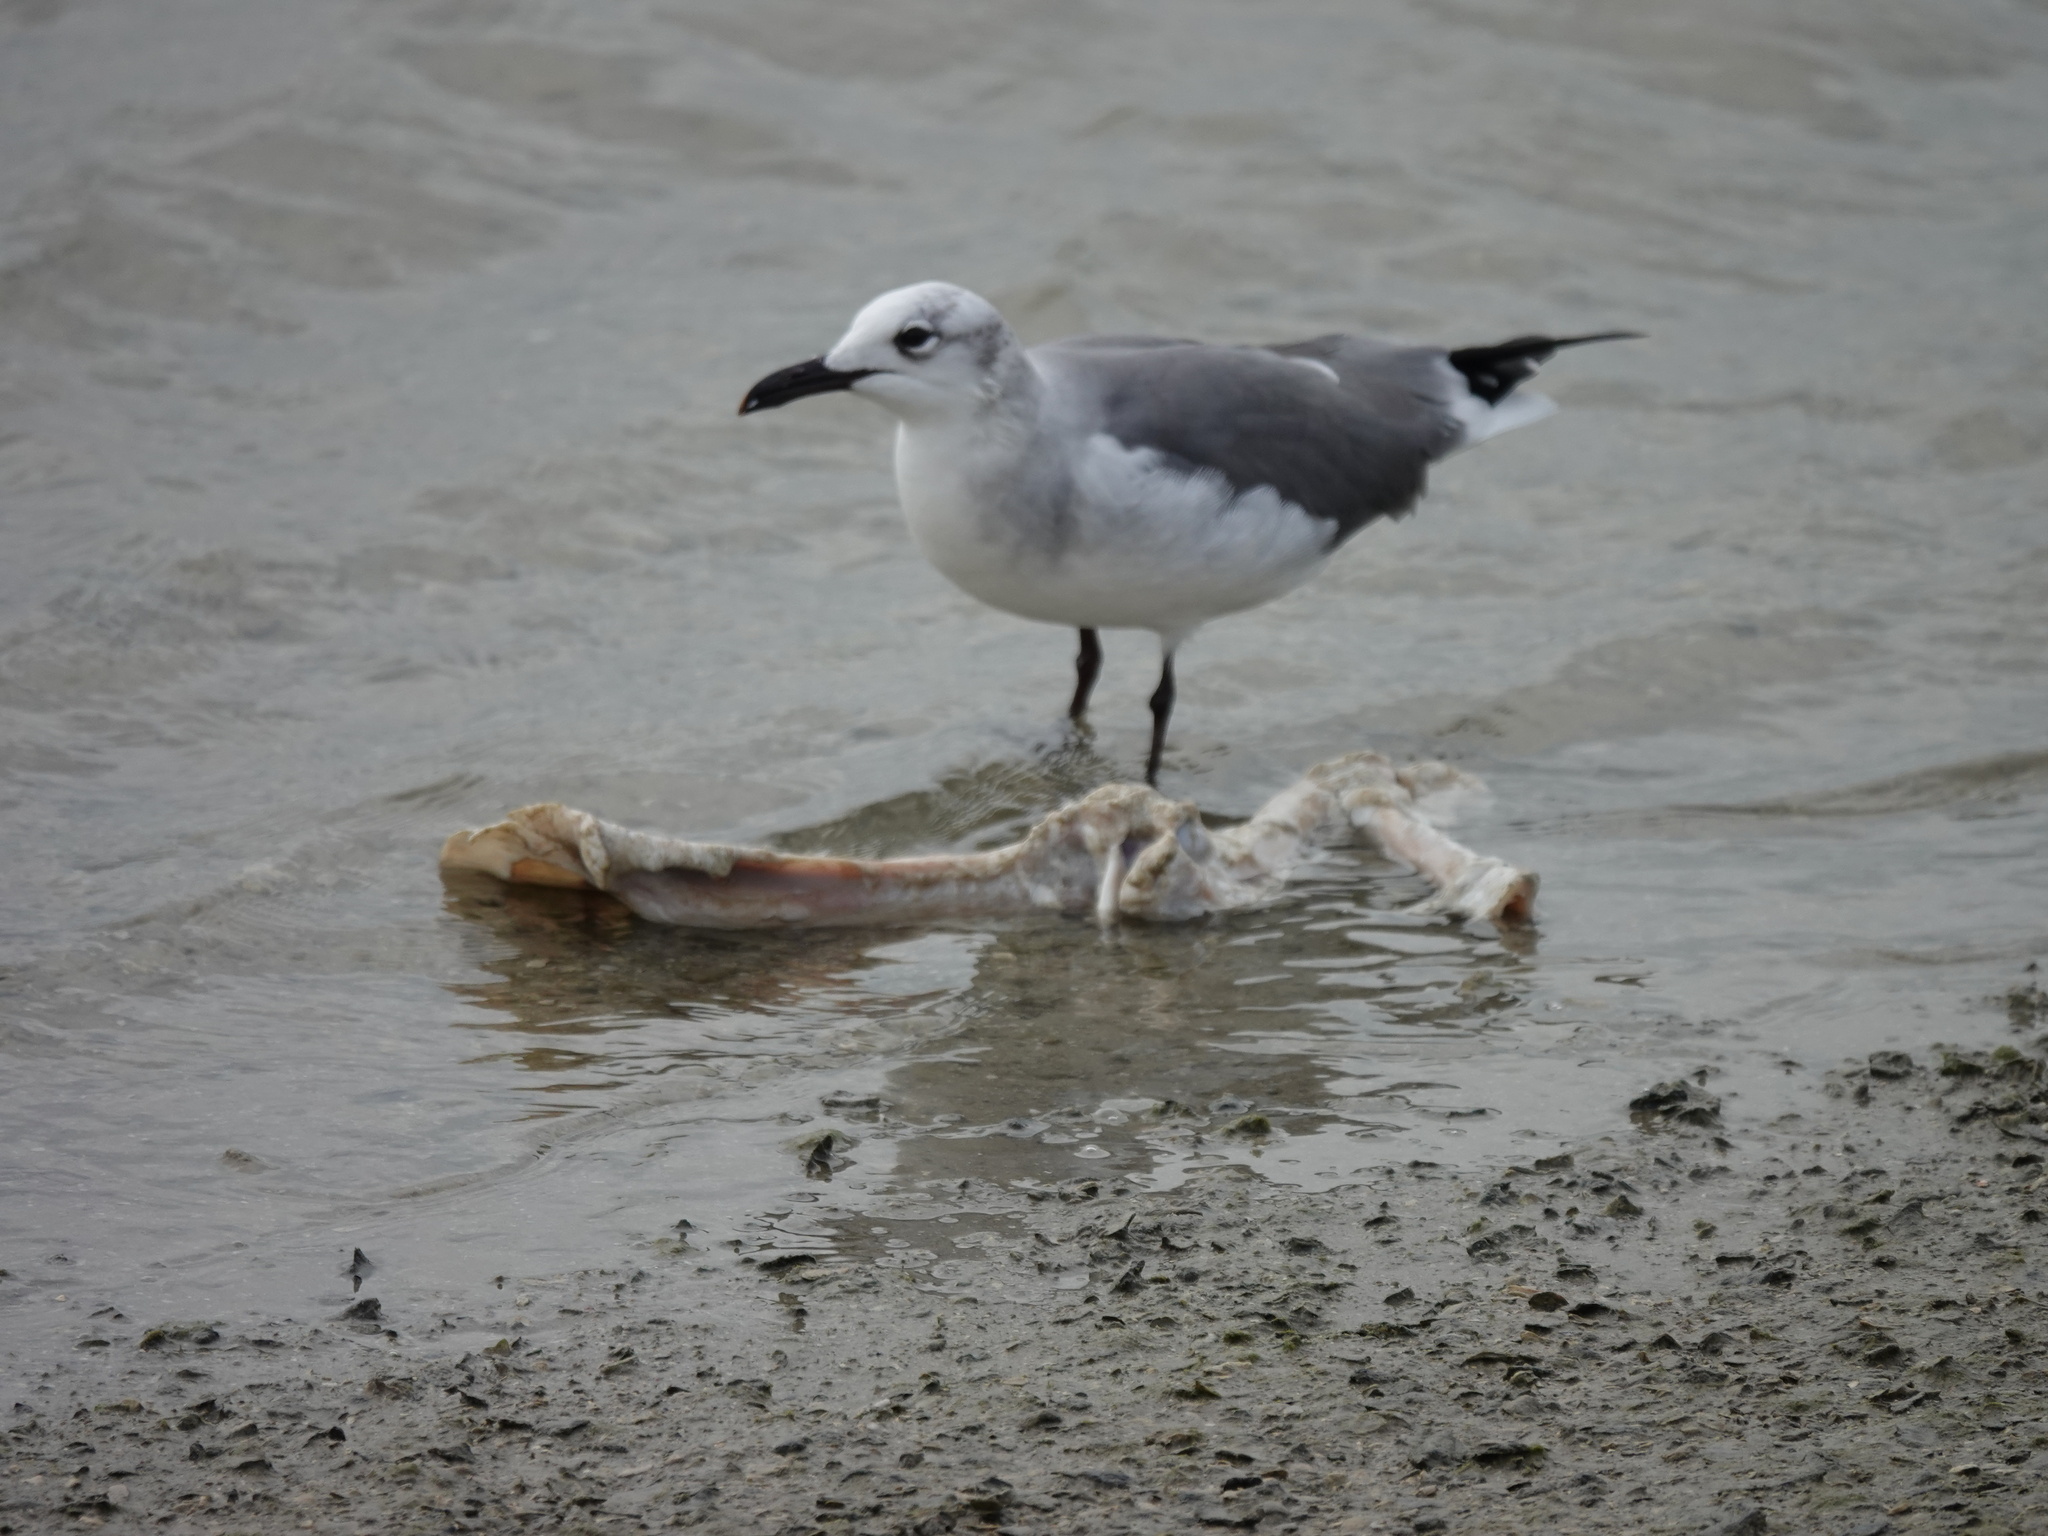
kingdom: Animalia
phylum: Chordata
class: Aves
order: Charadriiformes
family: Laridae
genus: Leucophaeus
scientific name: Leucophaeus atricilla
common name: Laughing gull
